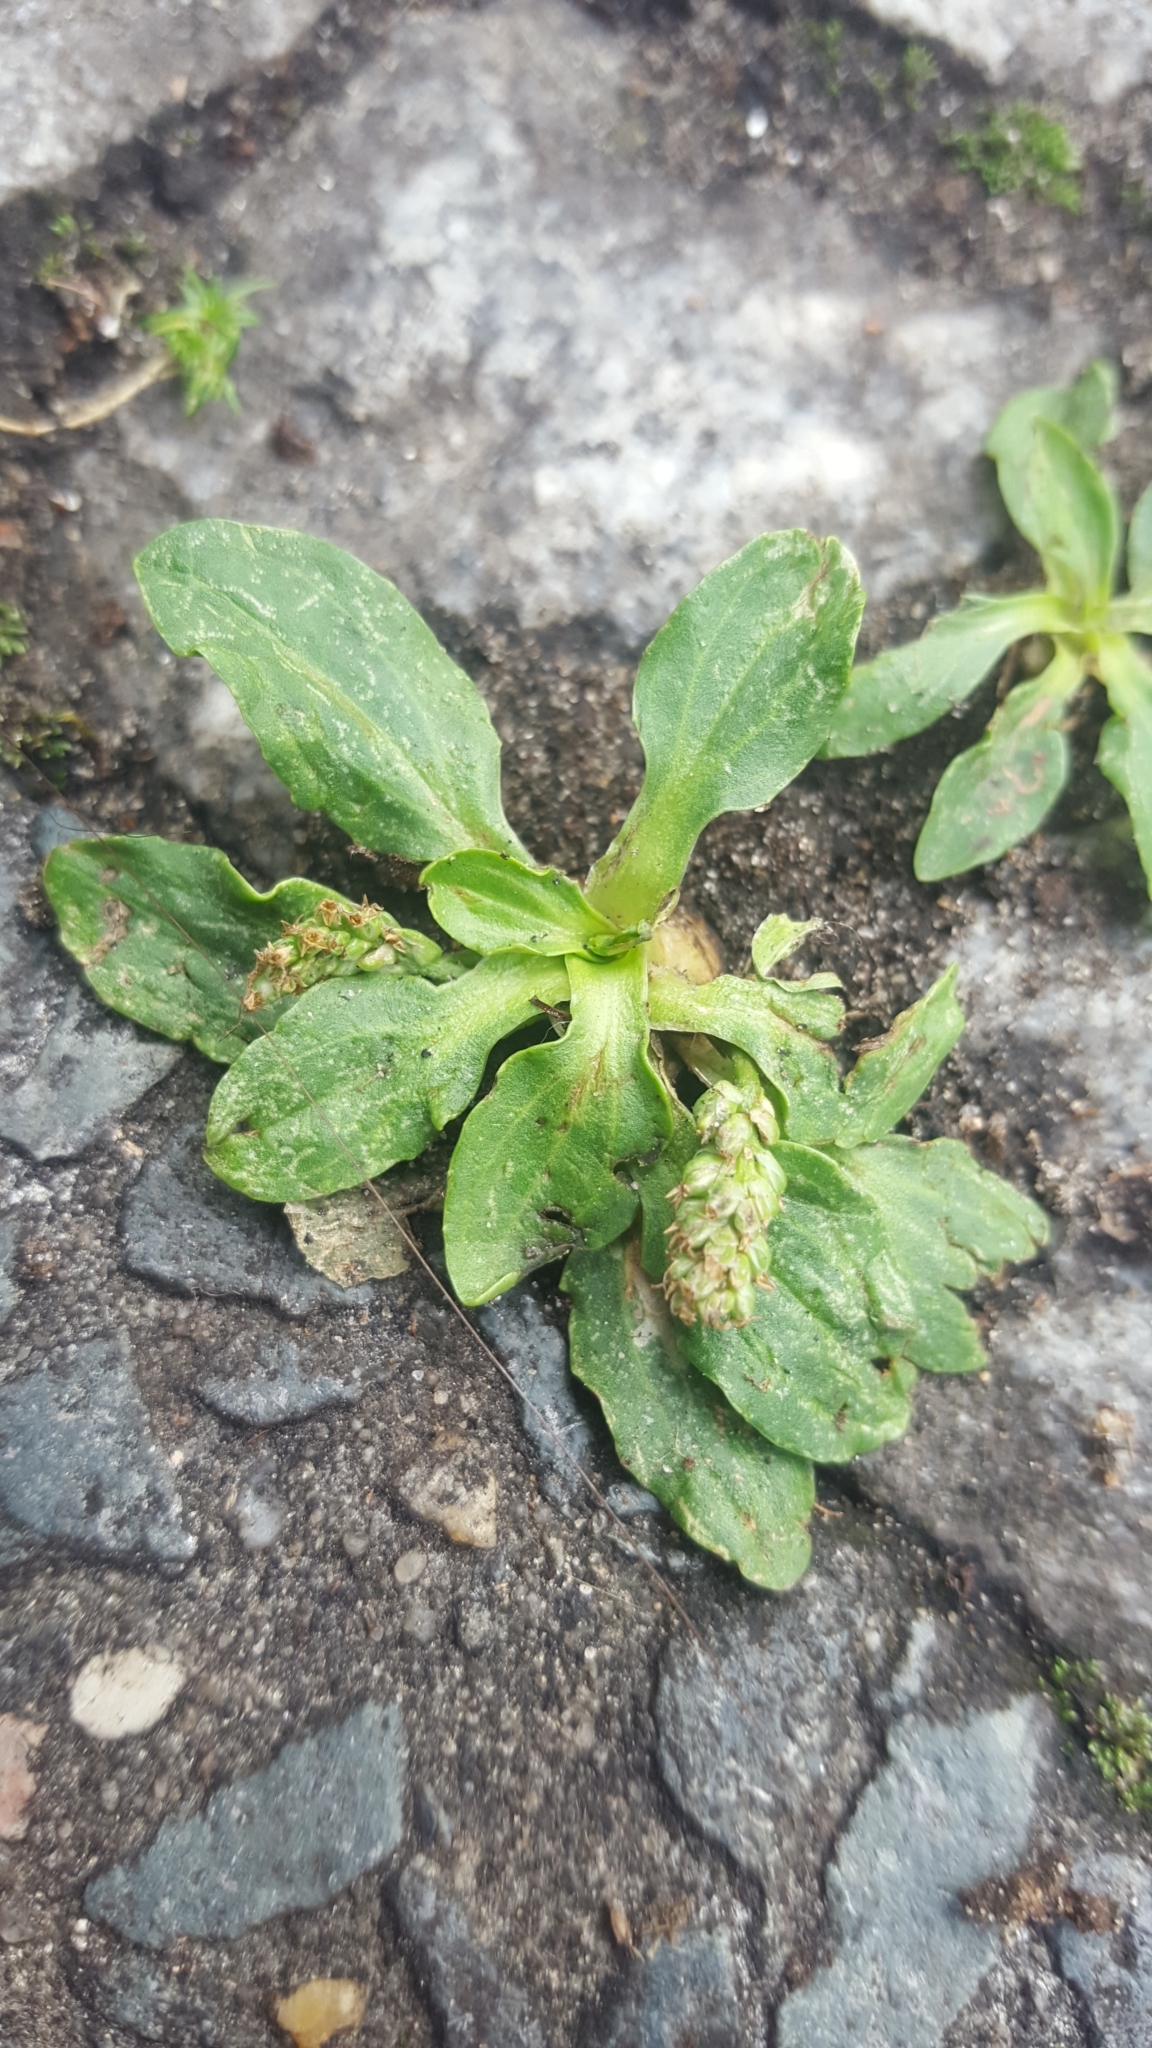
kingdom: Plantae
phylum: Tracheophyta
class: Magnoliopsida
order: Lamiales
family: Plantaginaceae
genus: Plantago
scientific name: Plantago major
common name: Common plantain
